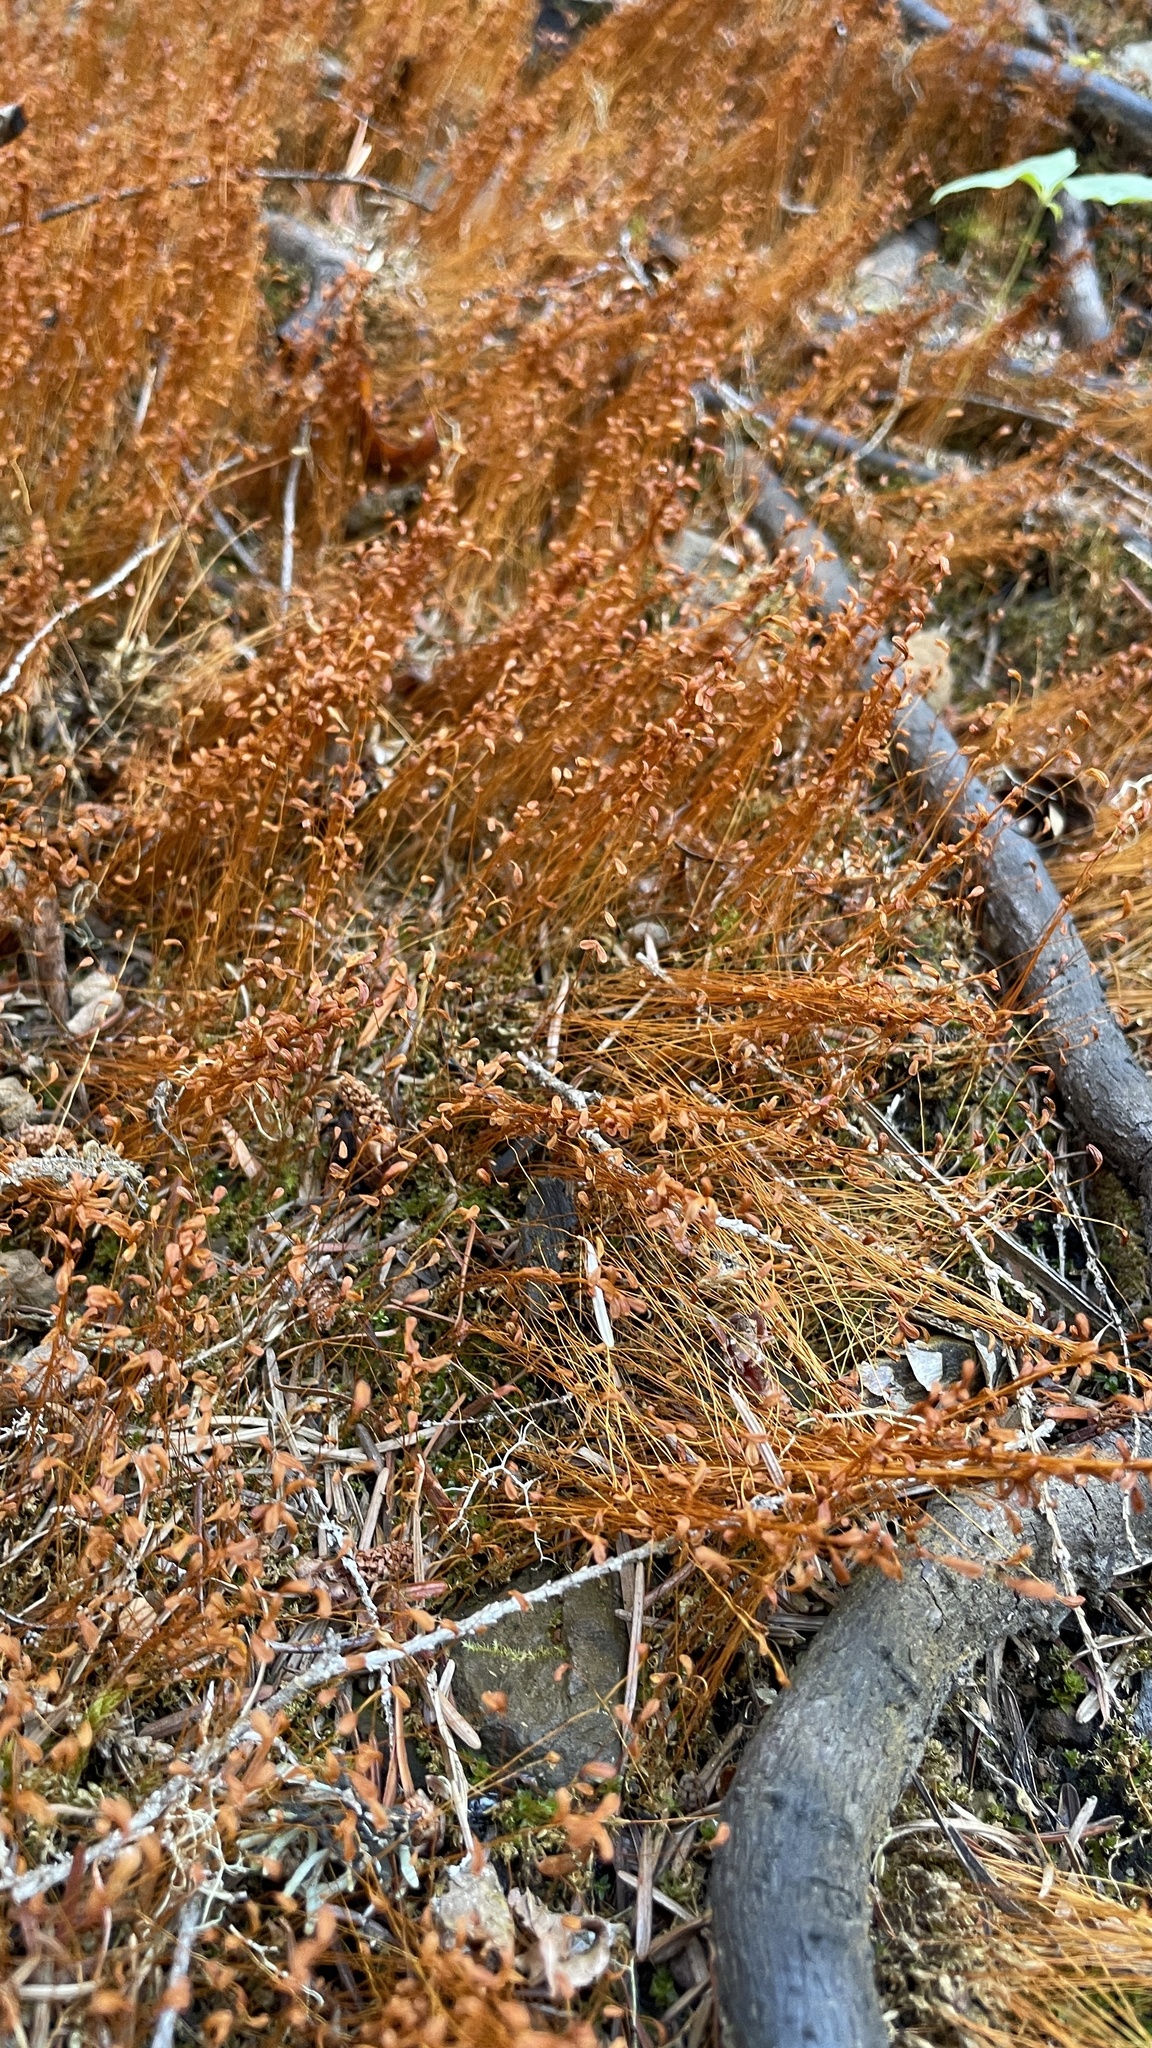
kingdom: Plantae
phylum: Bryophyta
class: Bryopsida
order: Funariales
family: Funariaceae
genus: Funaria
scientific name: Funaria hygrometrica
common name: Common cord moss
